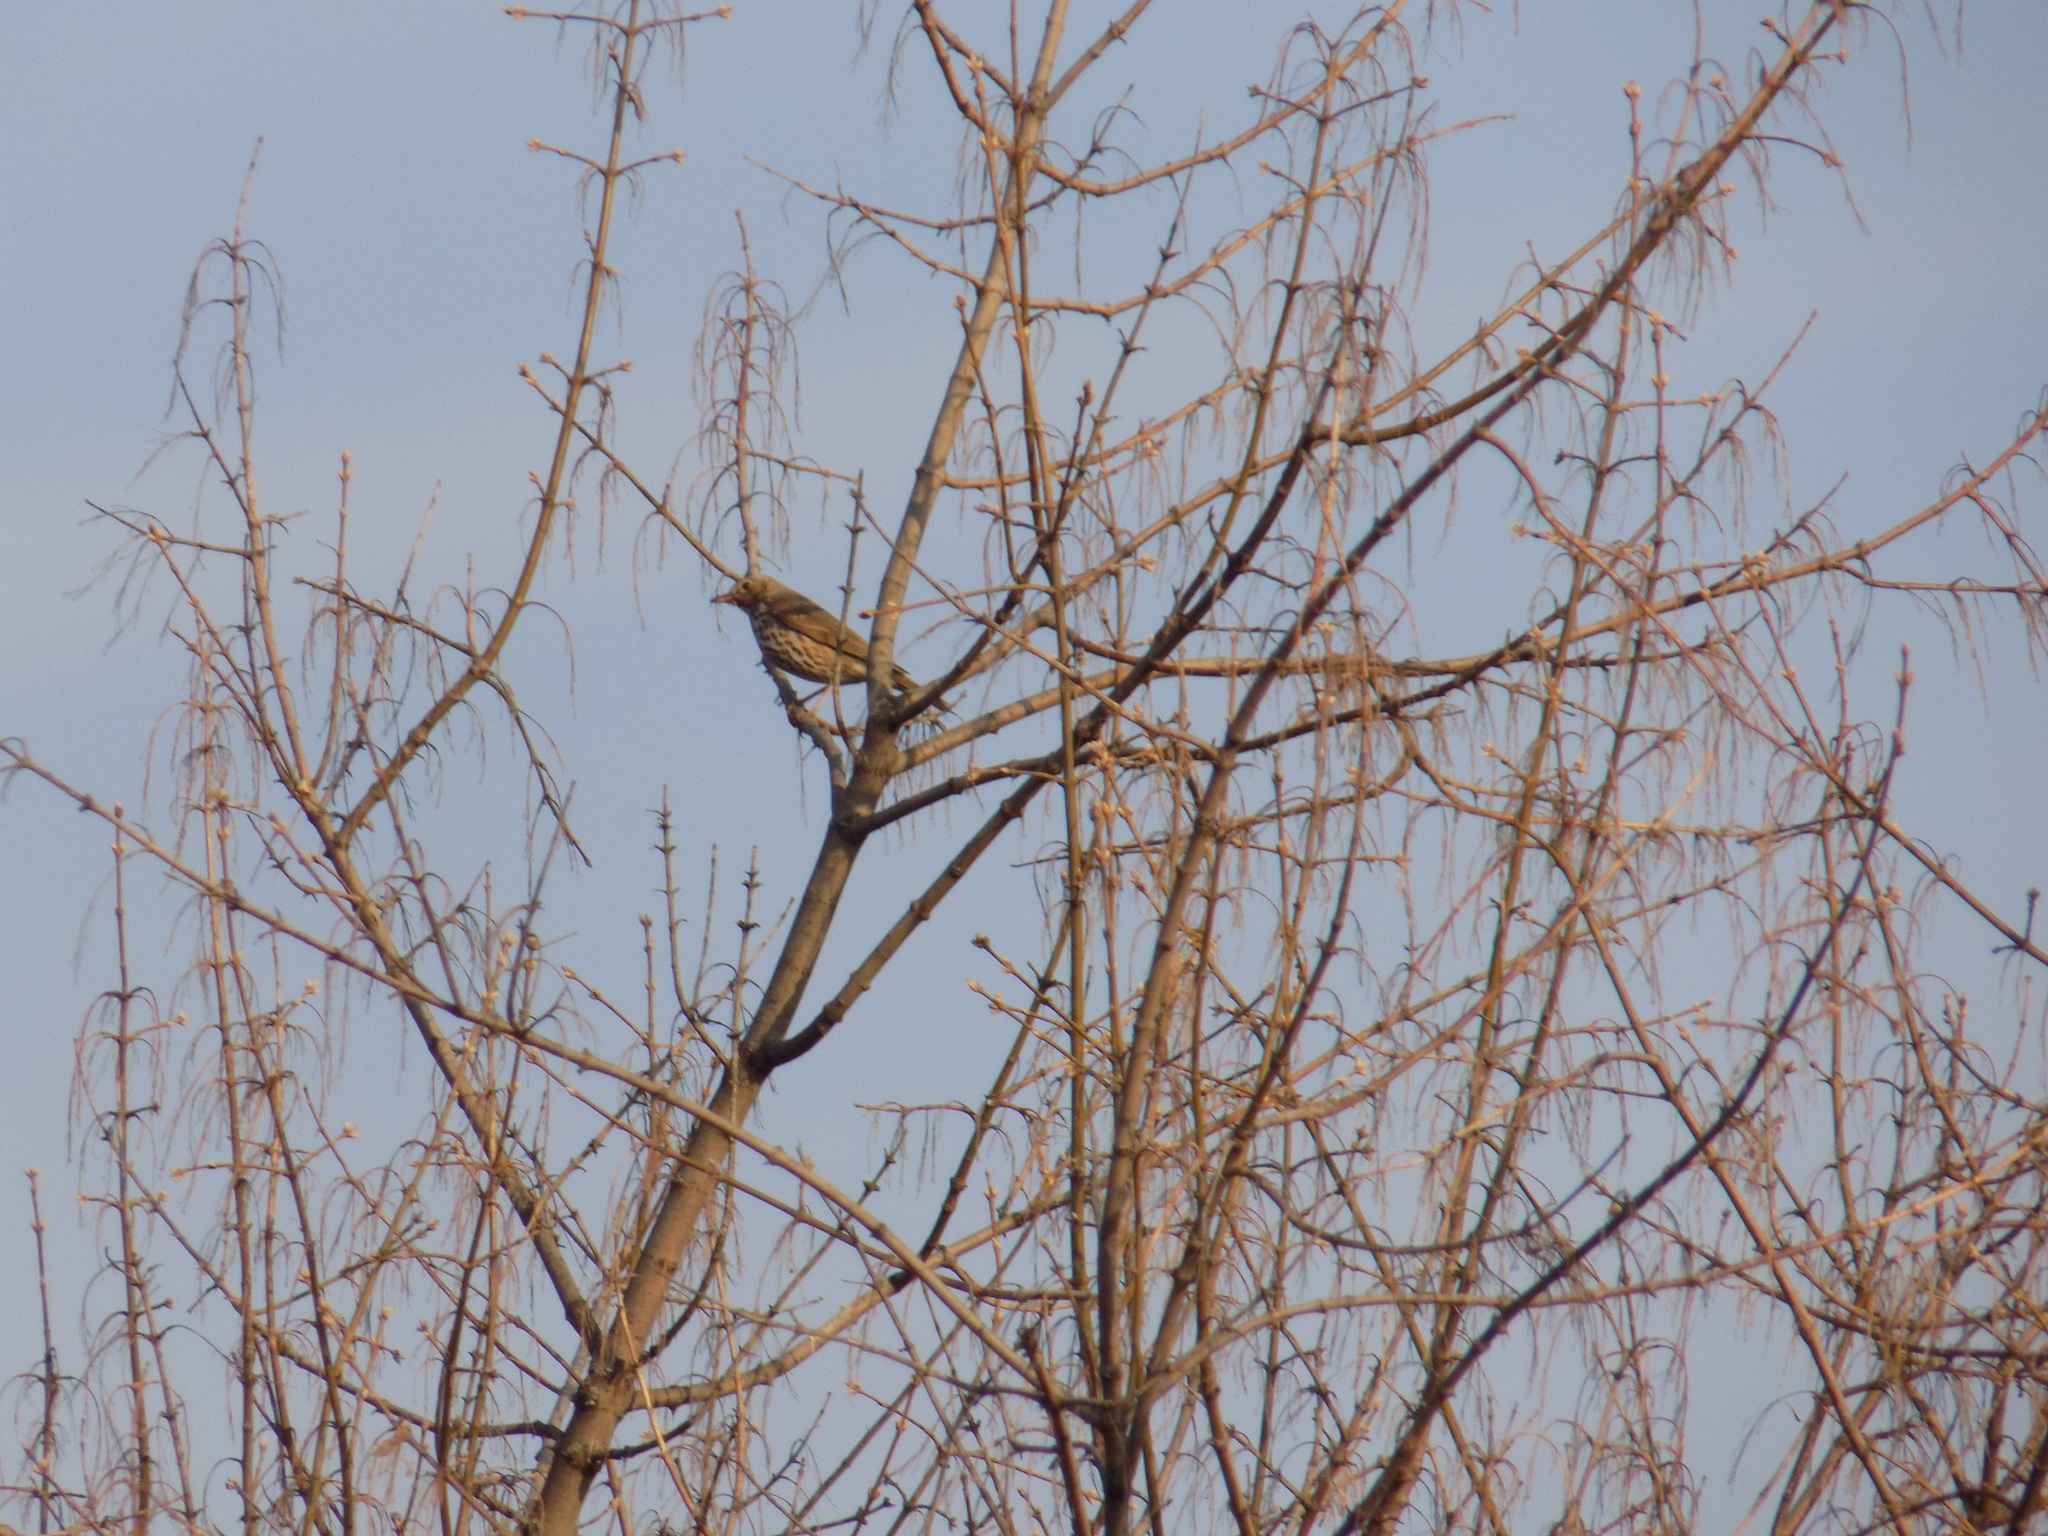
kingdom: Animalia
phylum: Chordata
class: Aves
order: Passeriformes
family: Turdidae
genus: Turdus
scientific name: Turdus philomelos
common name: Song thrush
